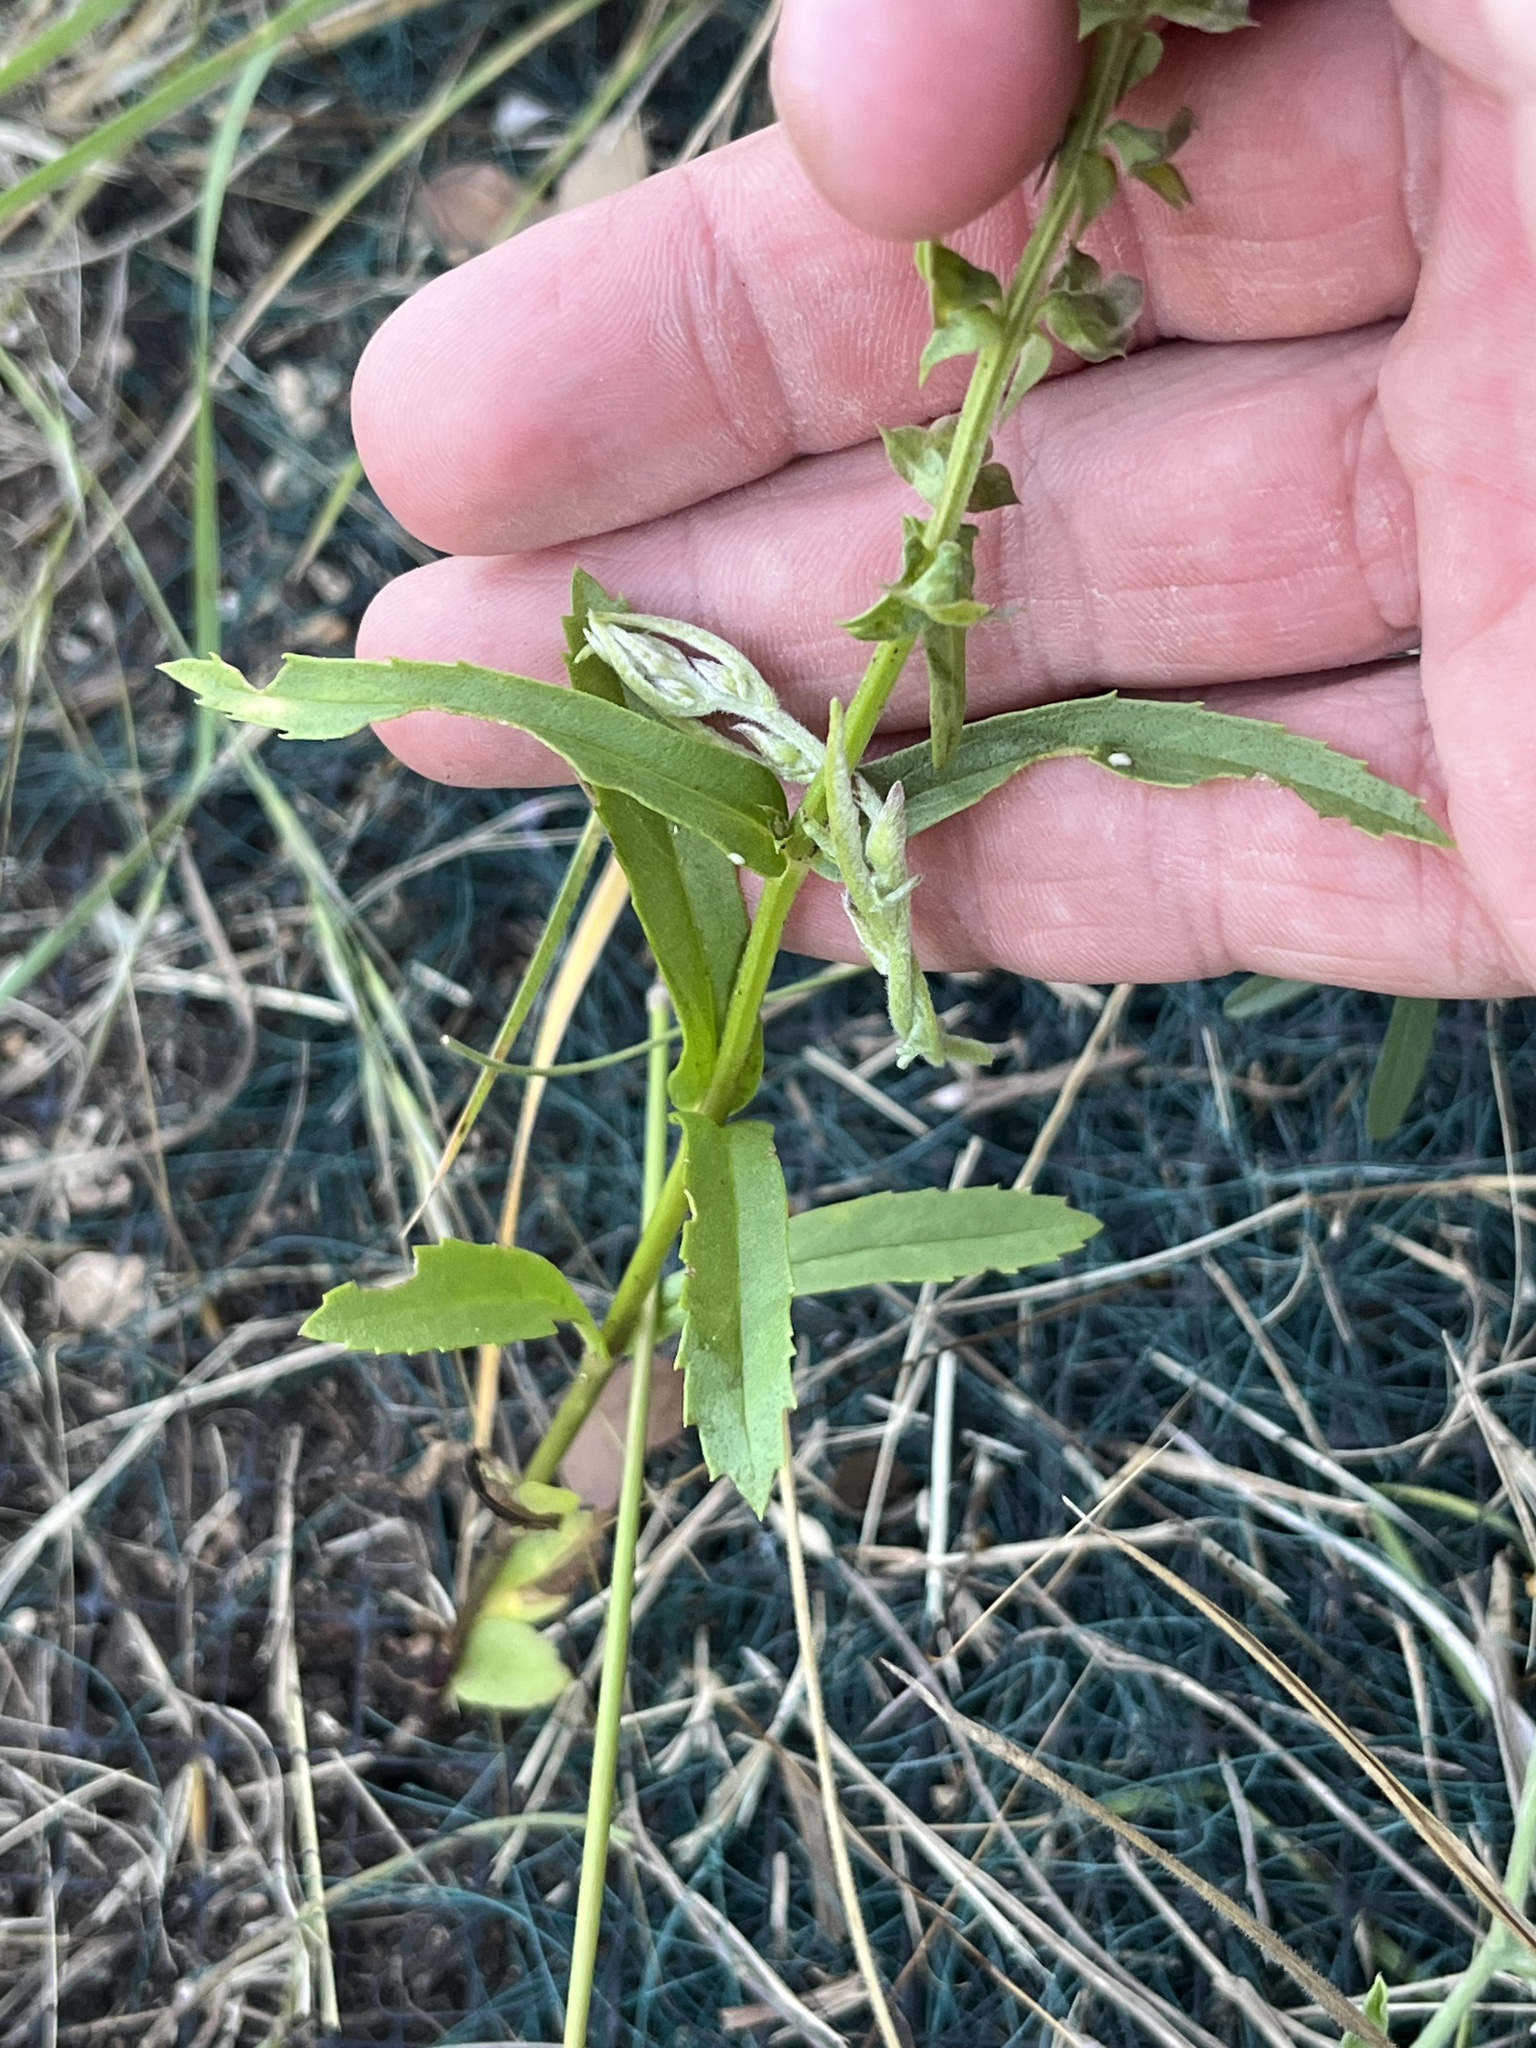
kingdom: Plantae
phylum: Tracheophyta
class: Magnoliopsida
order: Lamiales
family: Lamiaceae
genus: Warnockia
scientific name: Warnockia scutellarioides
